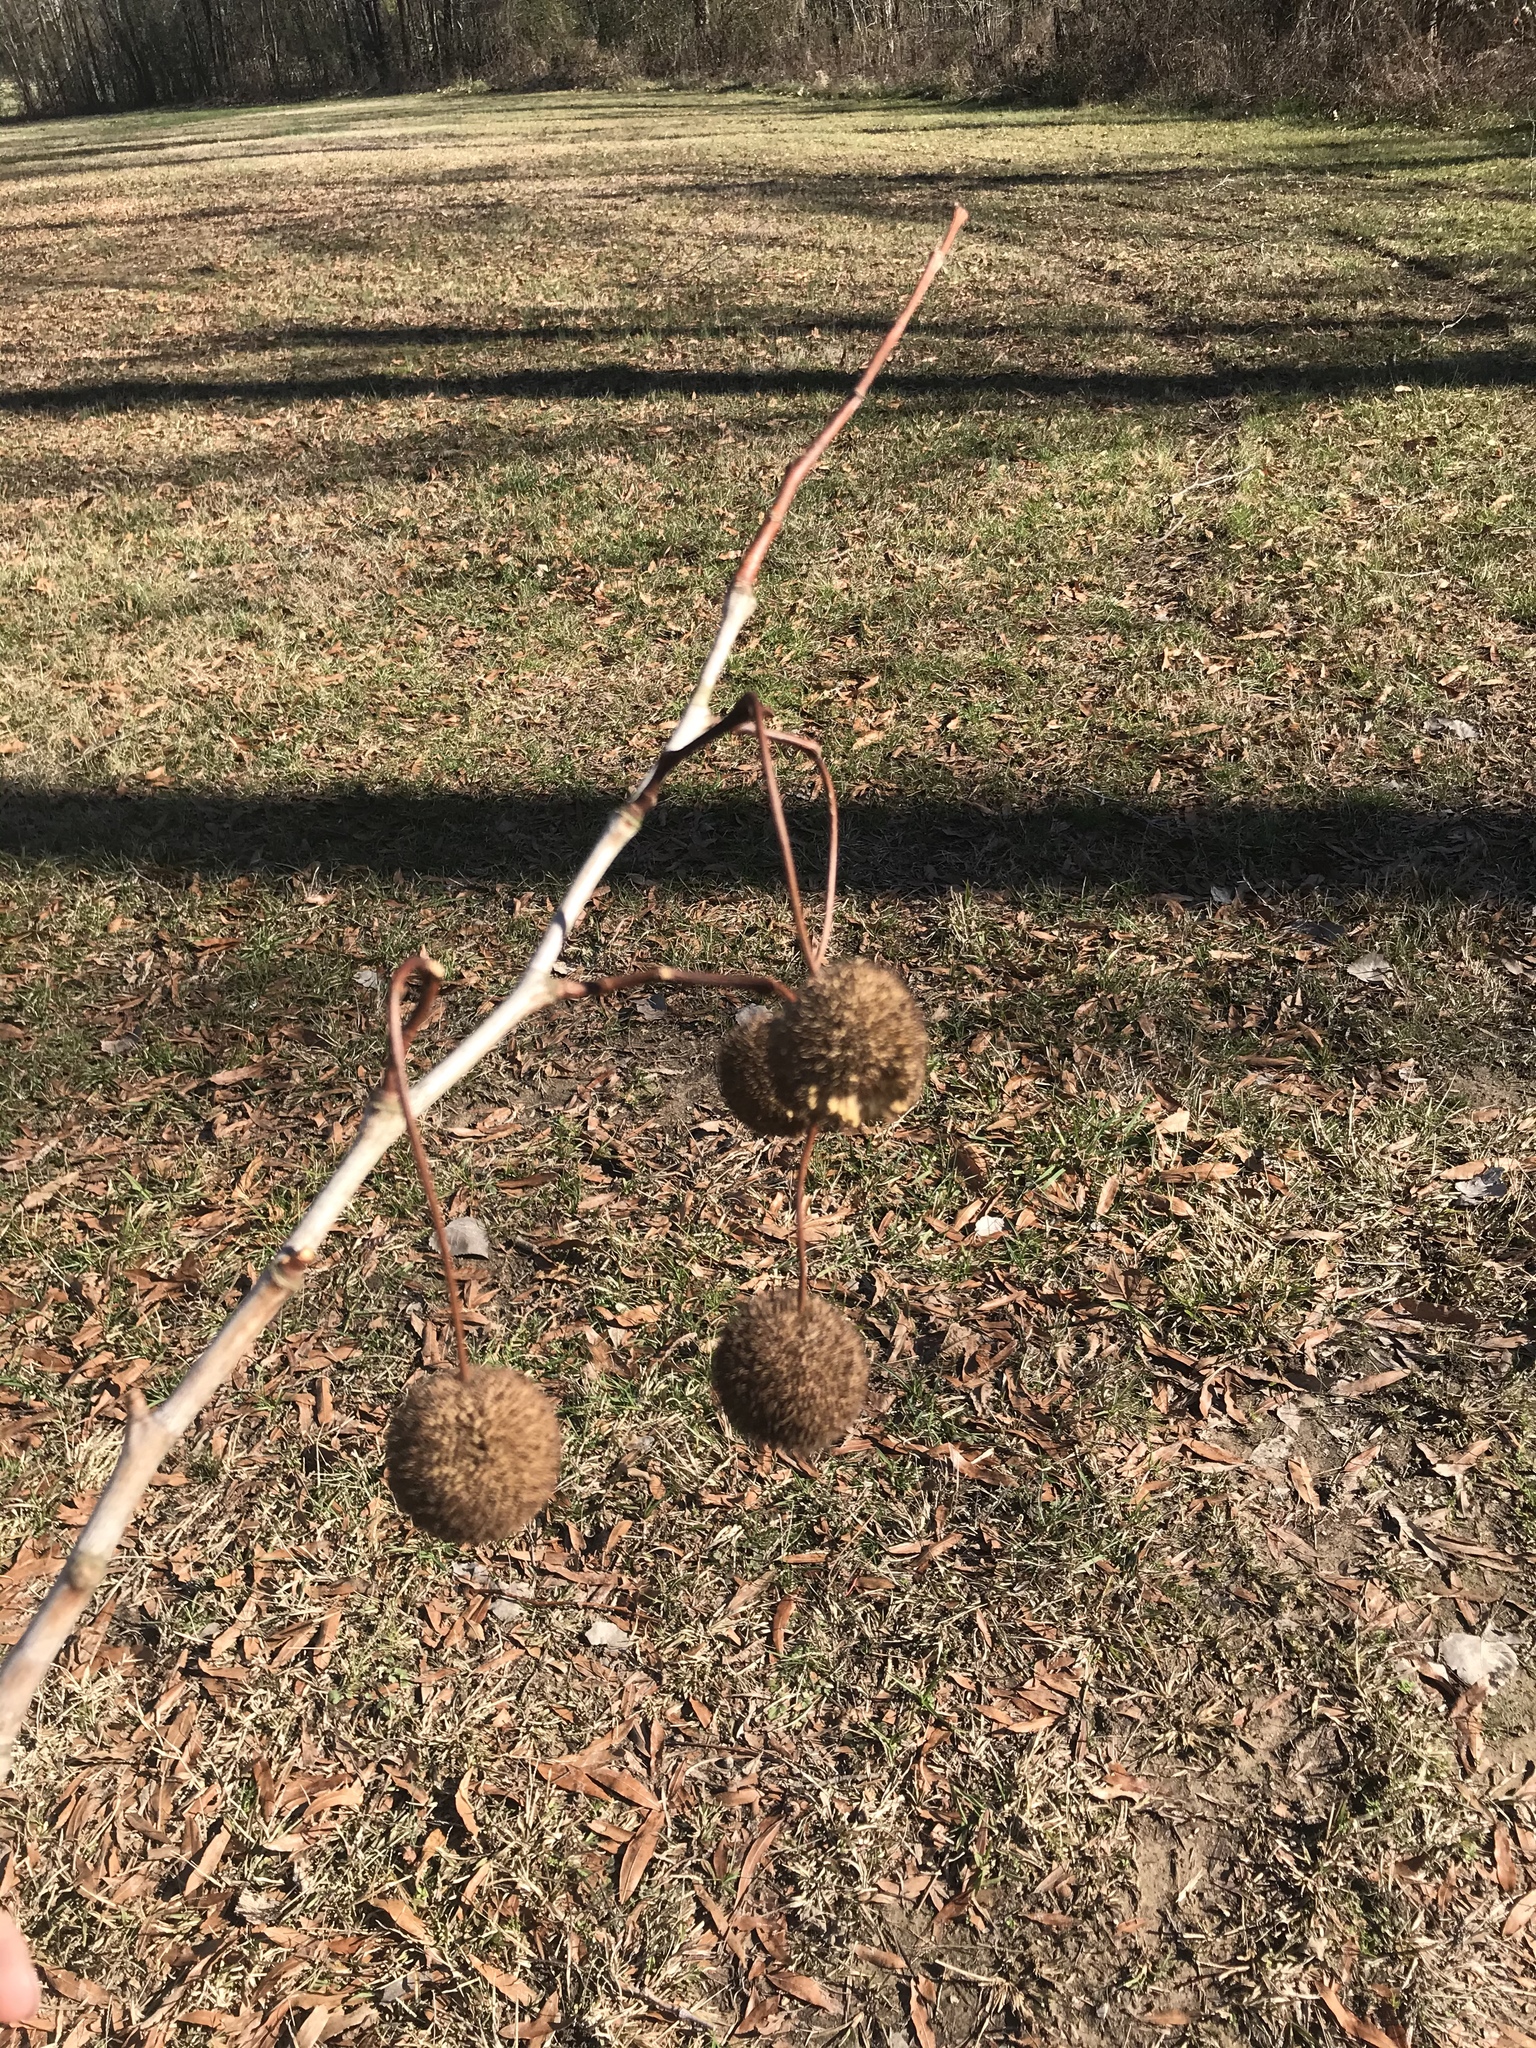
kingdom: Plantae
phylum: Tracheophyta
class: Magnoliopsida
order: Proteales
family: Platanaceae
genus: Platanus
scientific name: Platanus occidentalis
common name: American sycamore
